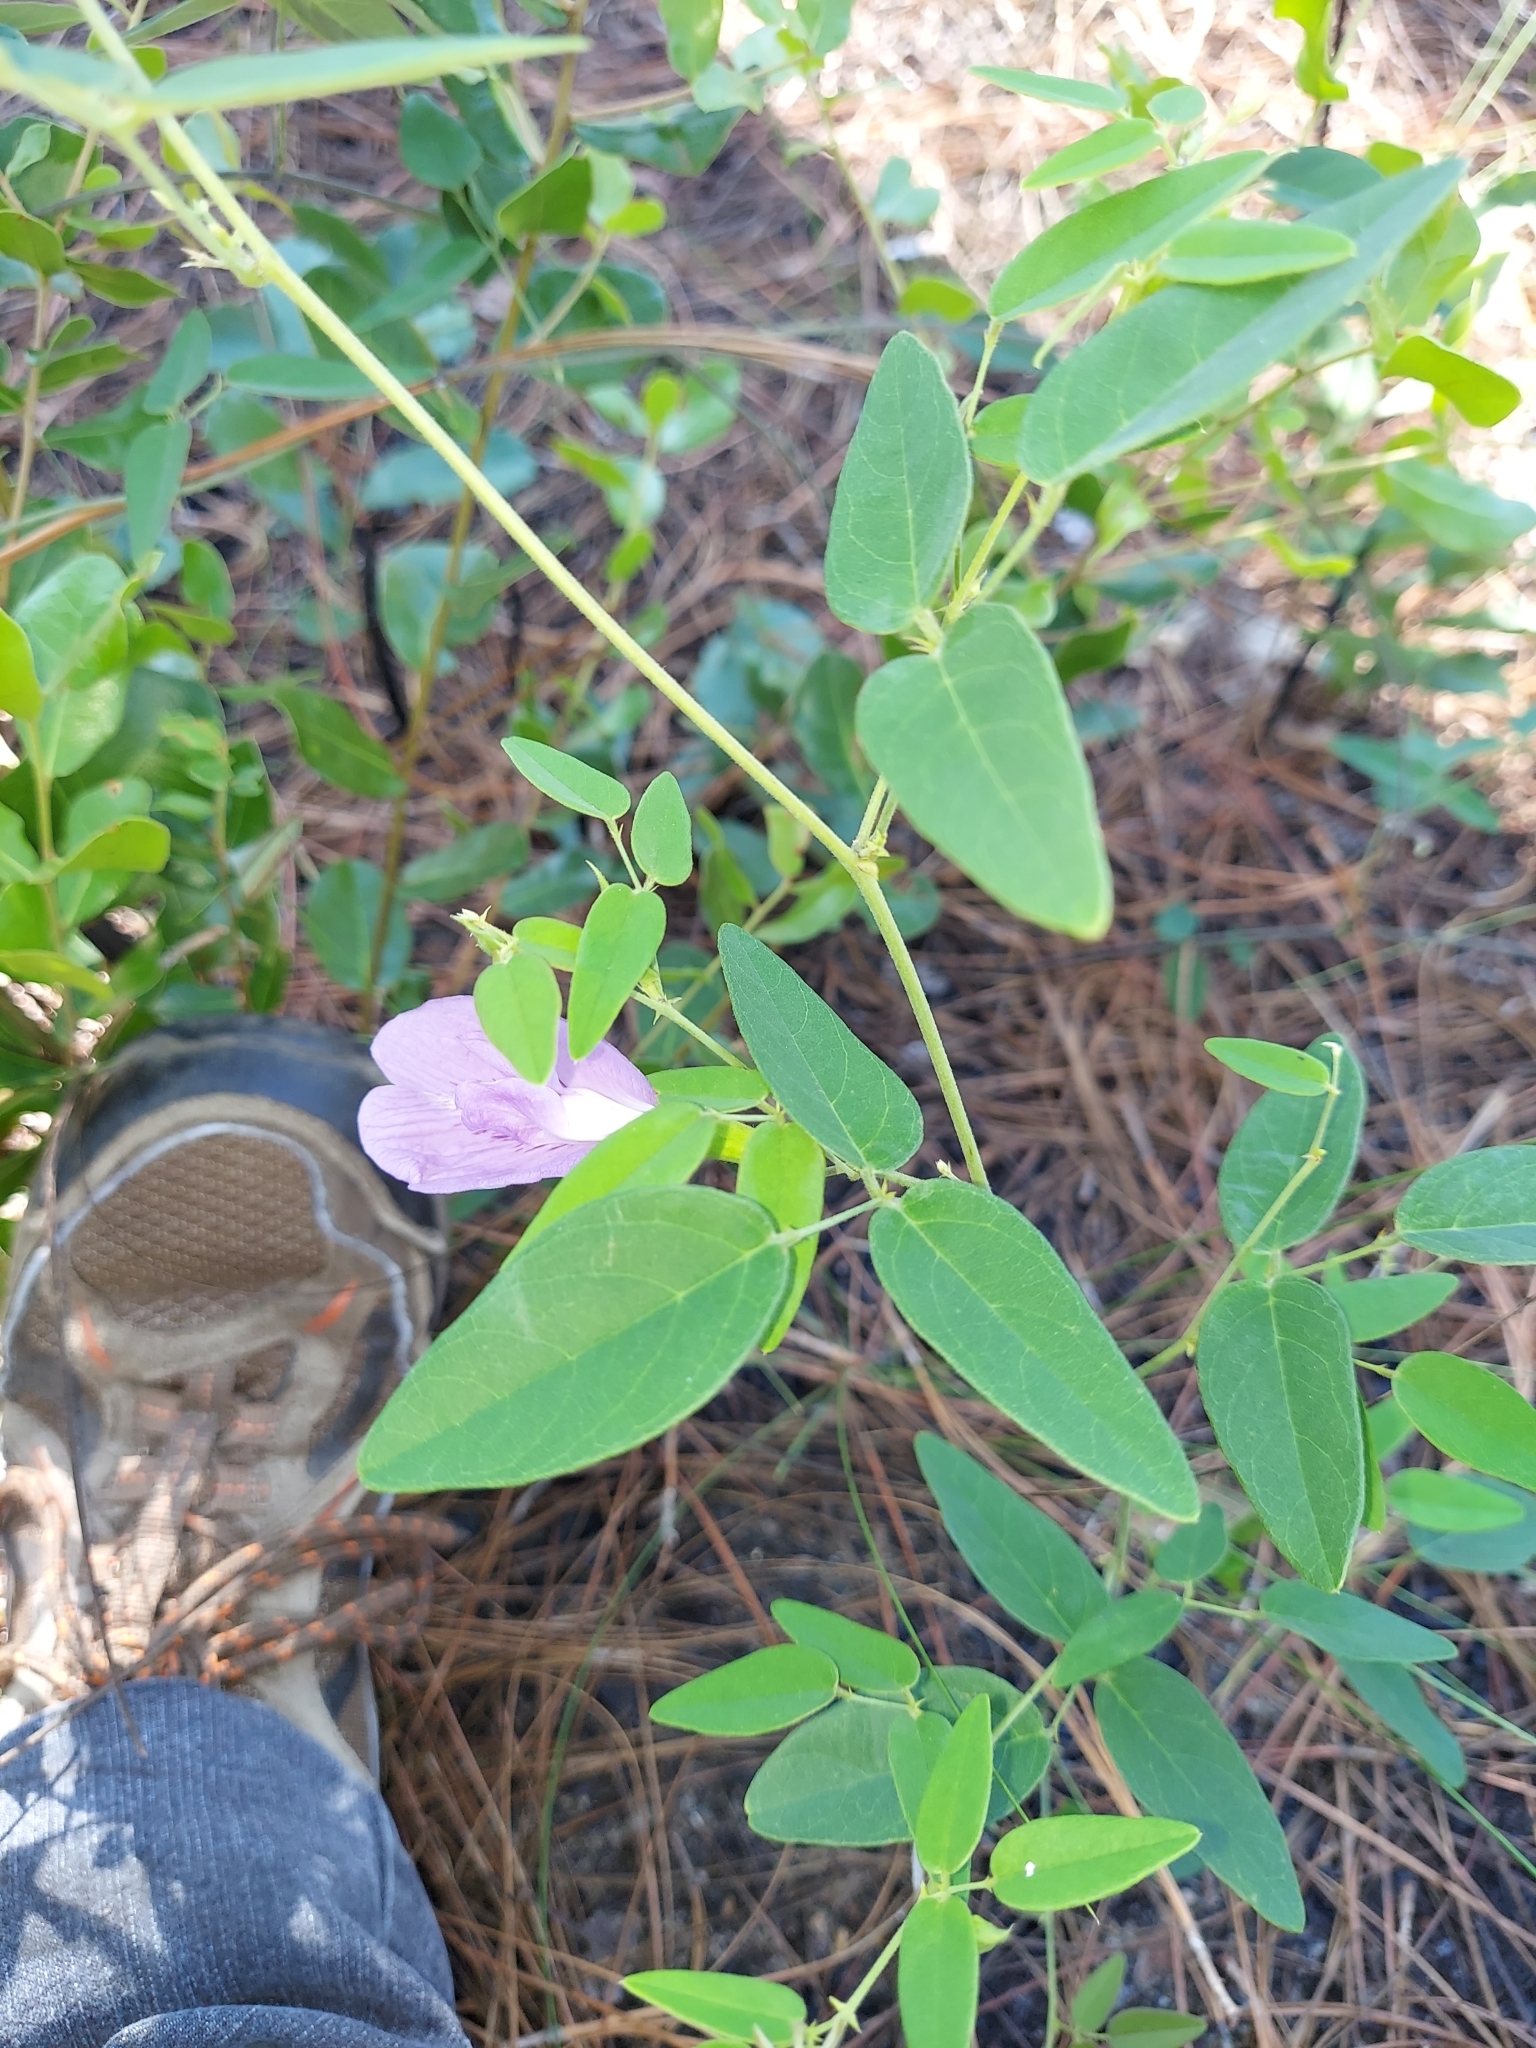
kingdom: Plantae
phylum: Tracheophyta
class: Magnoliopsida
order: Fabales
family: Fabaceae
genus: Clitoria
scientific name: Clitoria mariana
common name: Butterfly-pea
